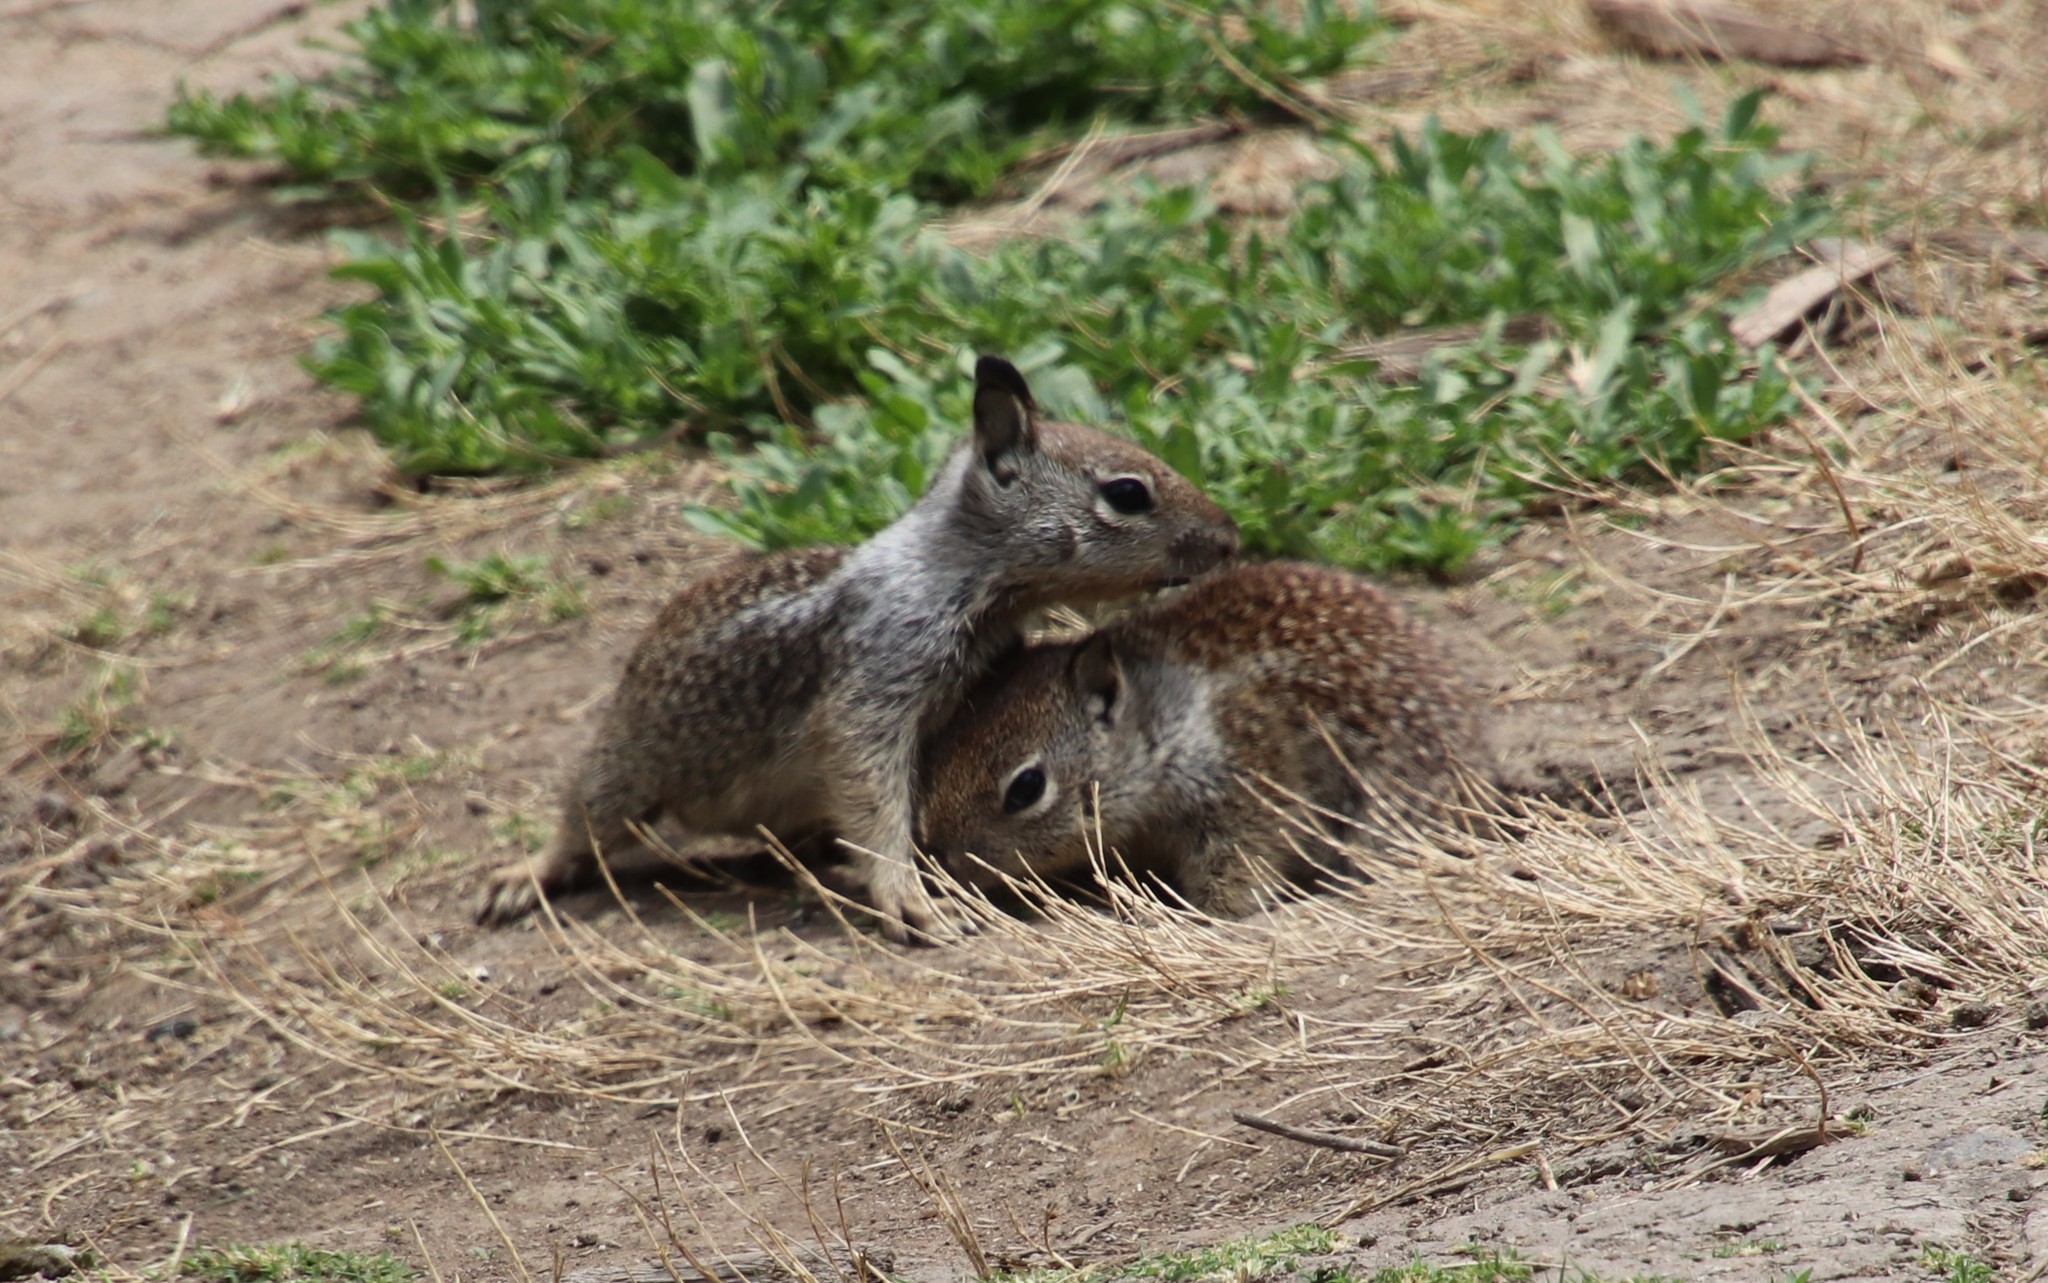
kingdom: Animalia
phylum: Chordata
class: Mammalia
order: Rodentia
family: Sciuridae
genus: Otospermophilus
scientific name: Otospermophilus beecheyi
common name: California ground squirrel
